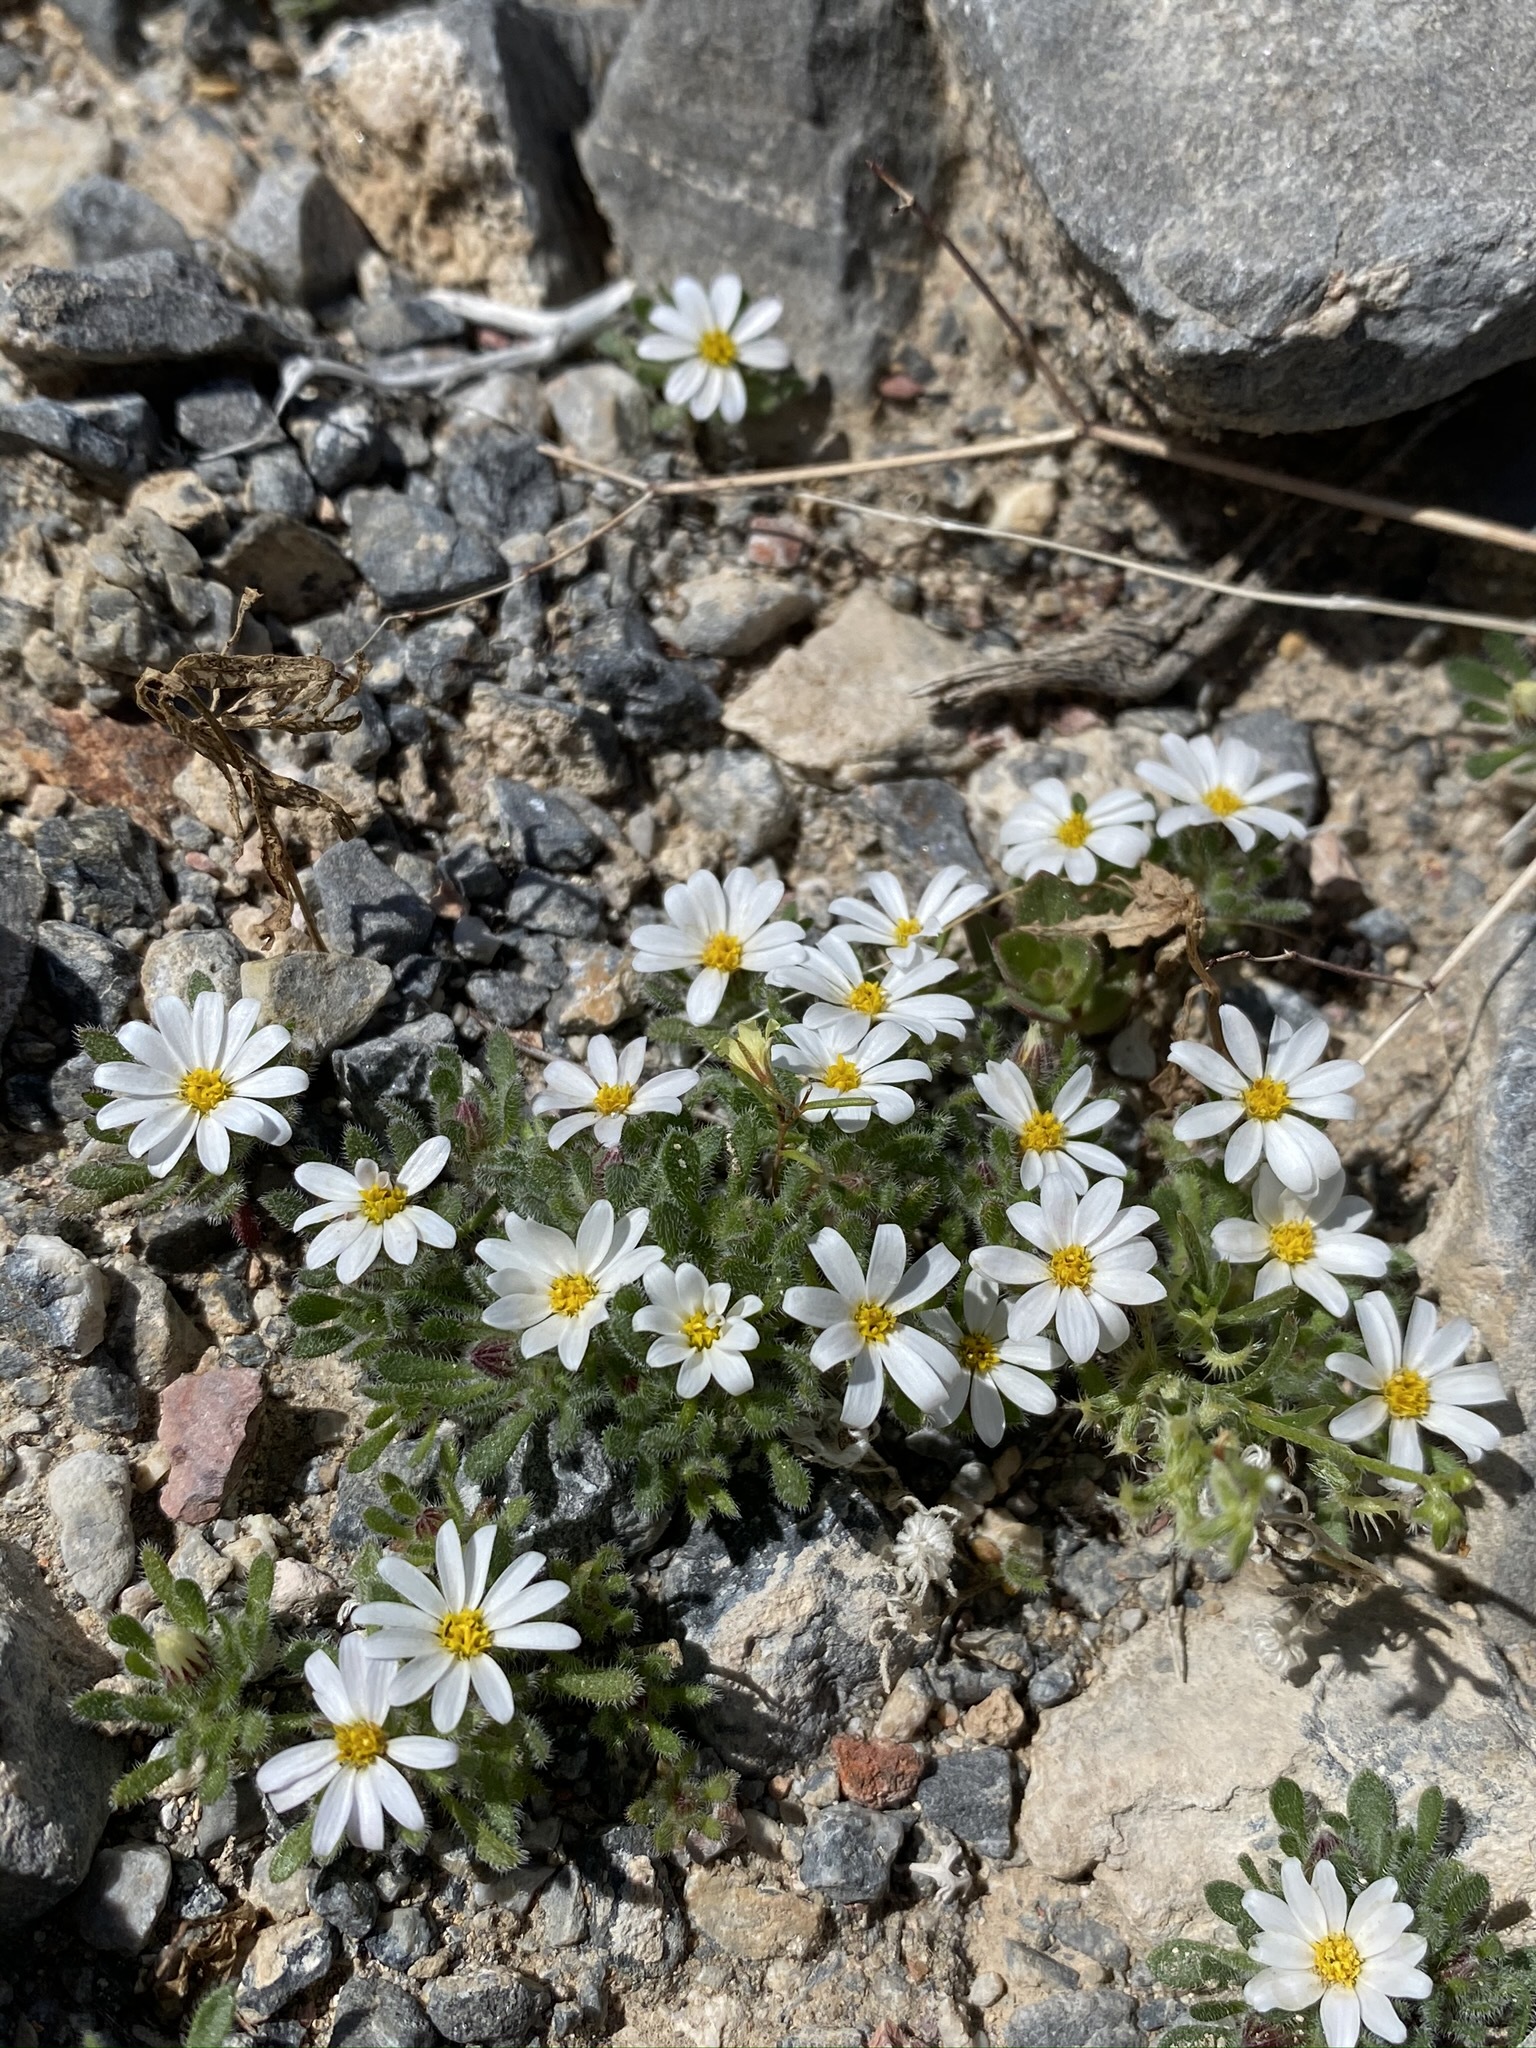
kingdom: Plantae
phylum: Tracheophyta
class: Magnoliopsida
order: Asterales
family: Asteraceae
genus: Monoptilon
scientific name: Monoptilon bellioides
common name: Bristly desertstar
